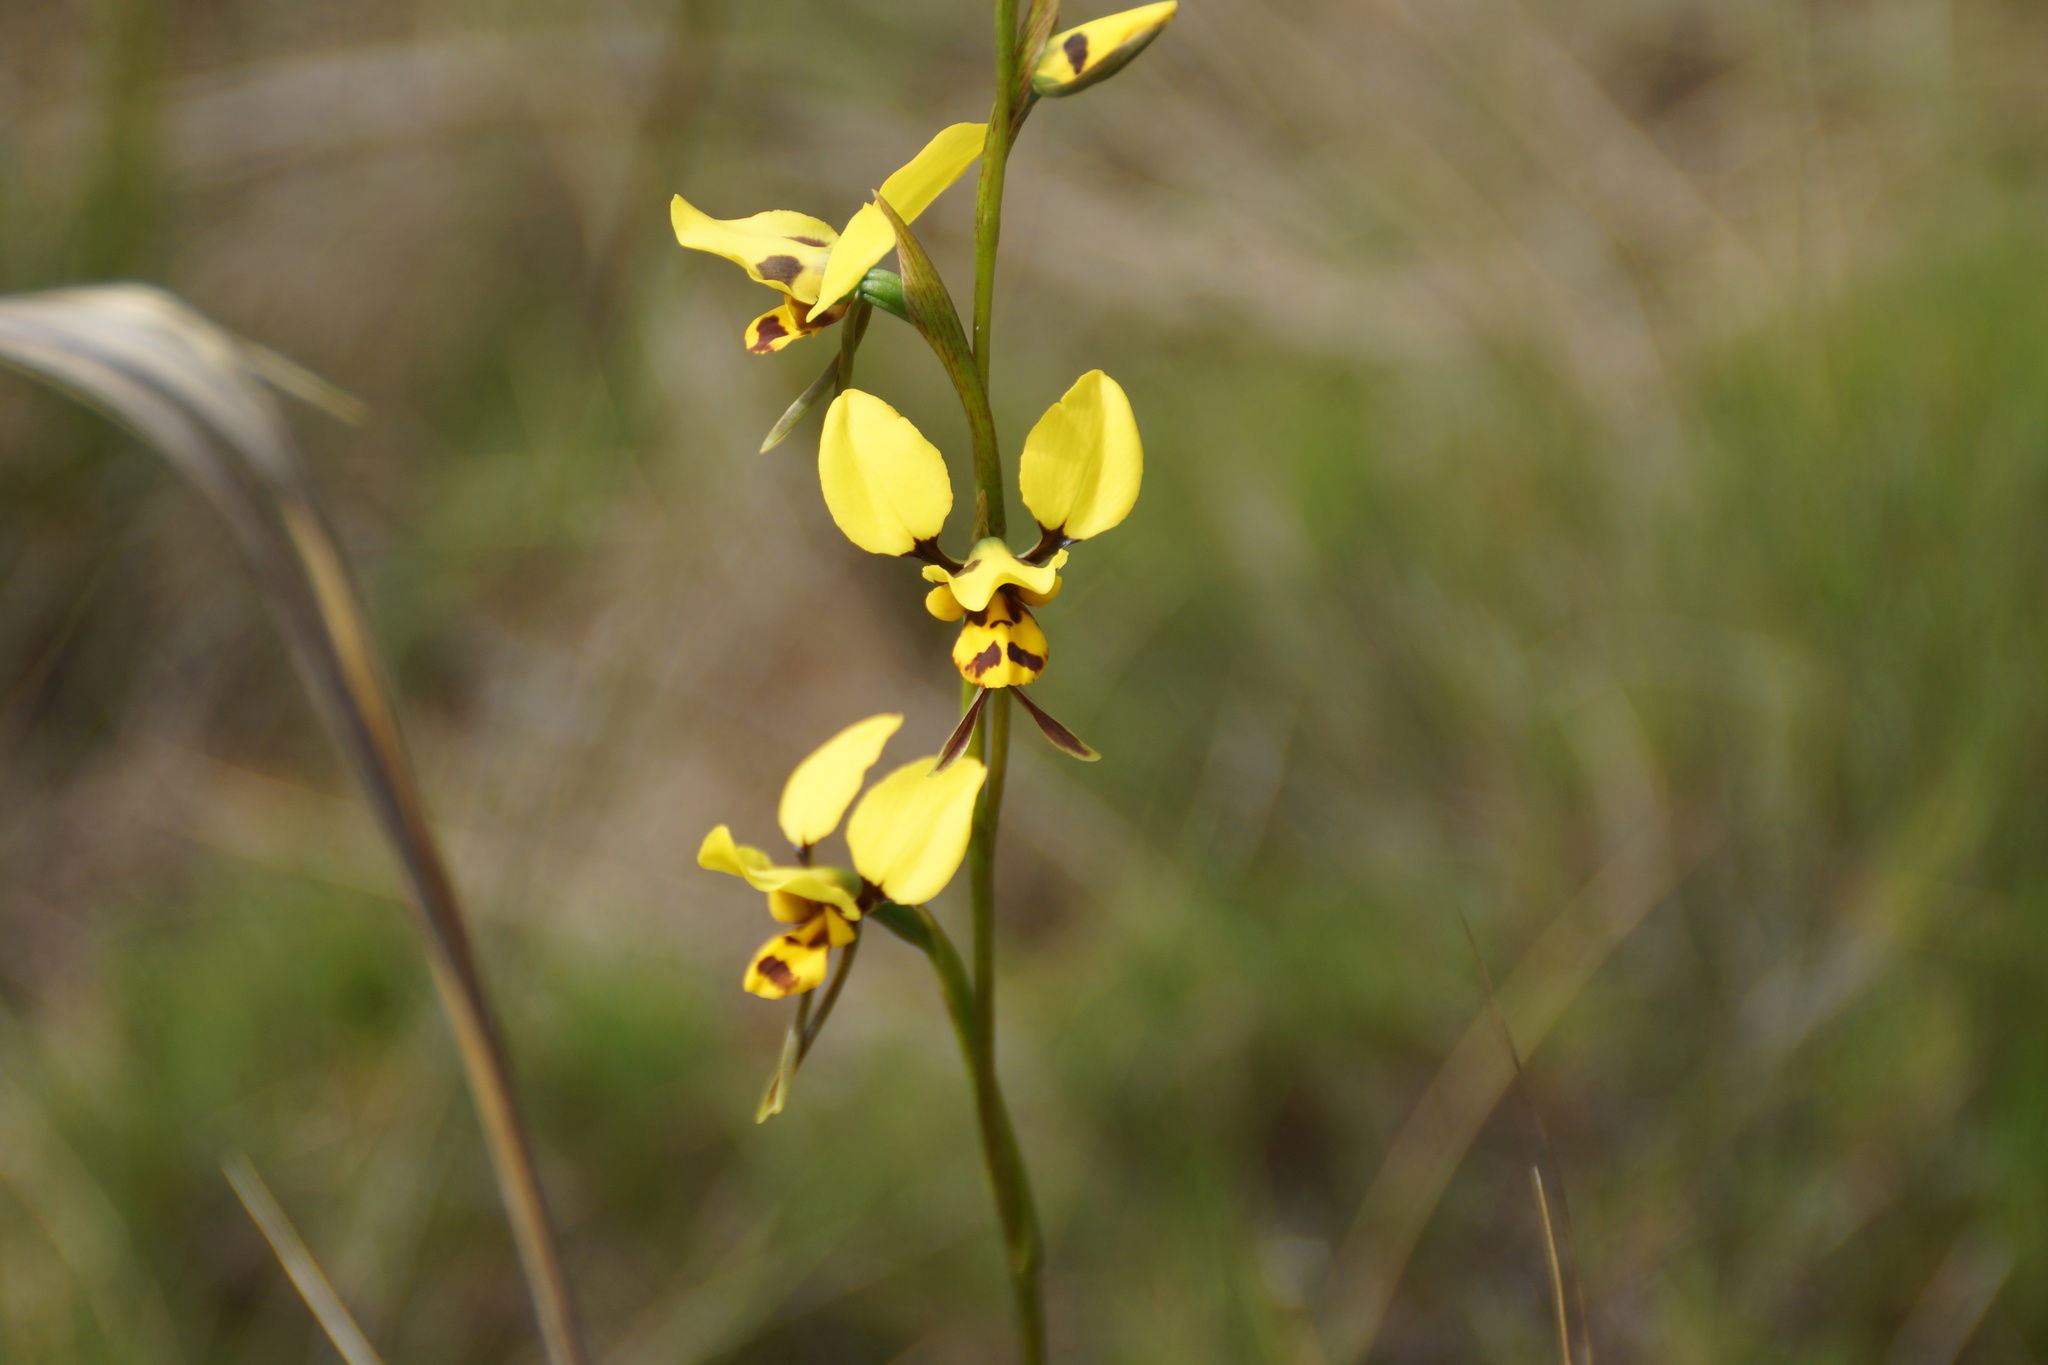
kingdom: Plantae
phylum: Tracheophyta
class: Liliopsida
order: Asparagales
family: Orchidaceae
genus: Diuris
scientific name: Diuris sulphurea
